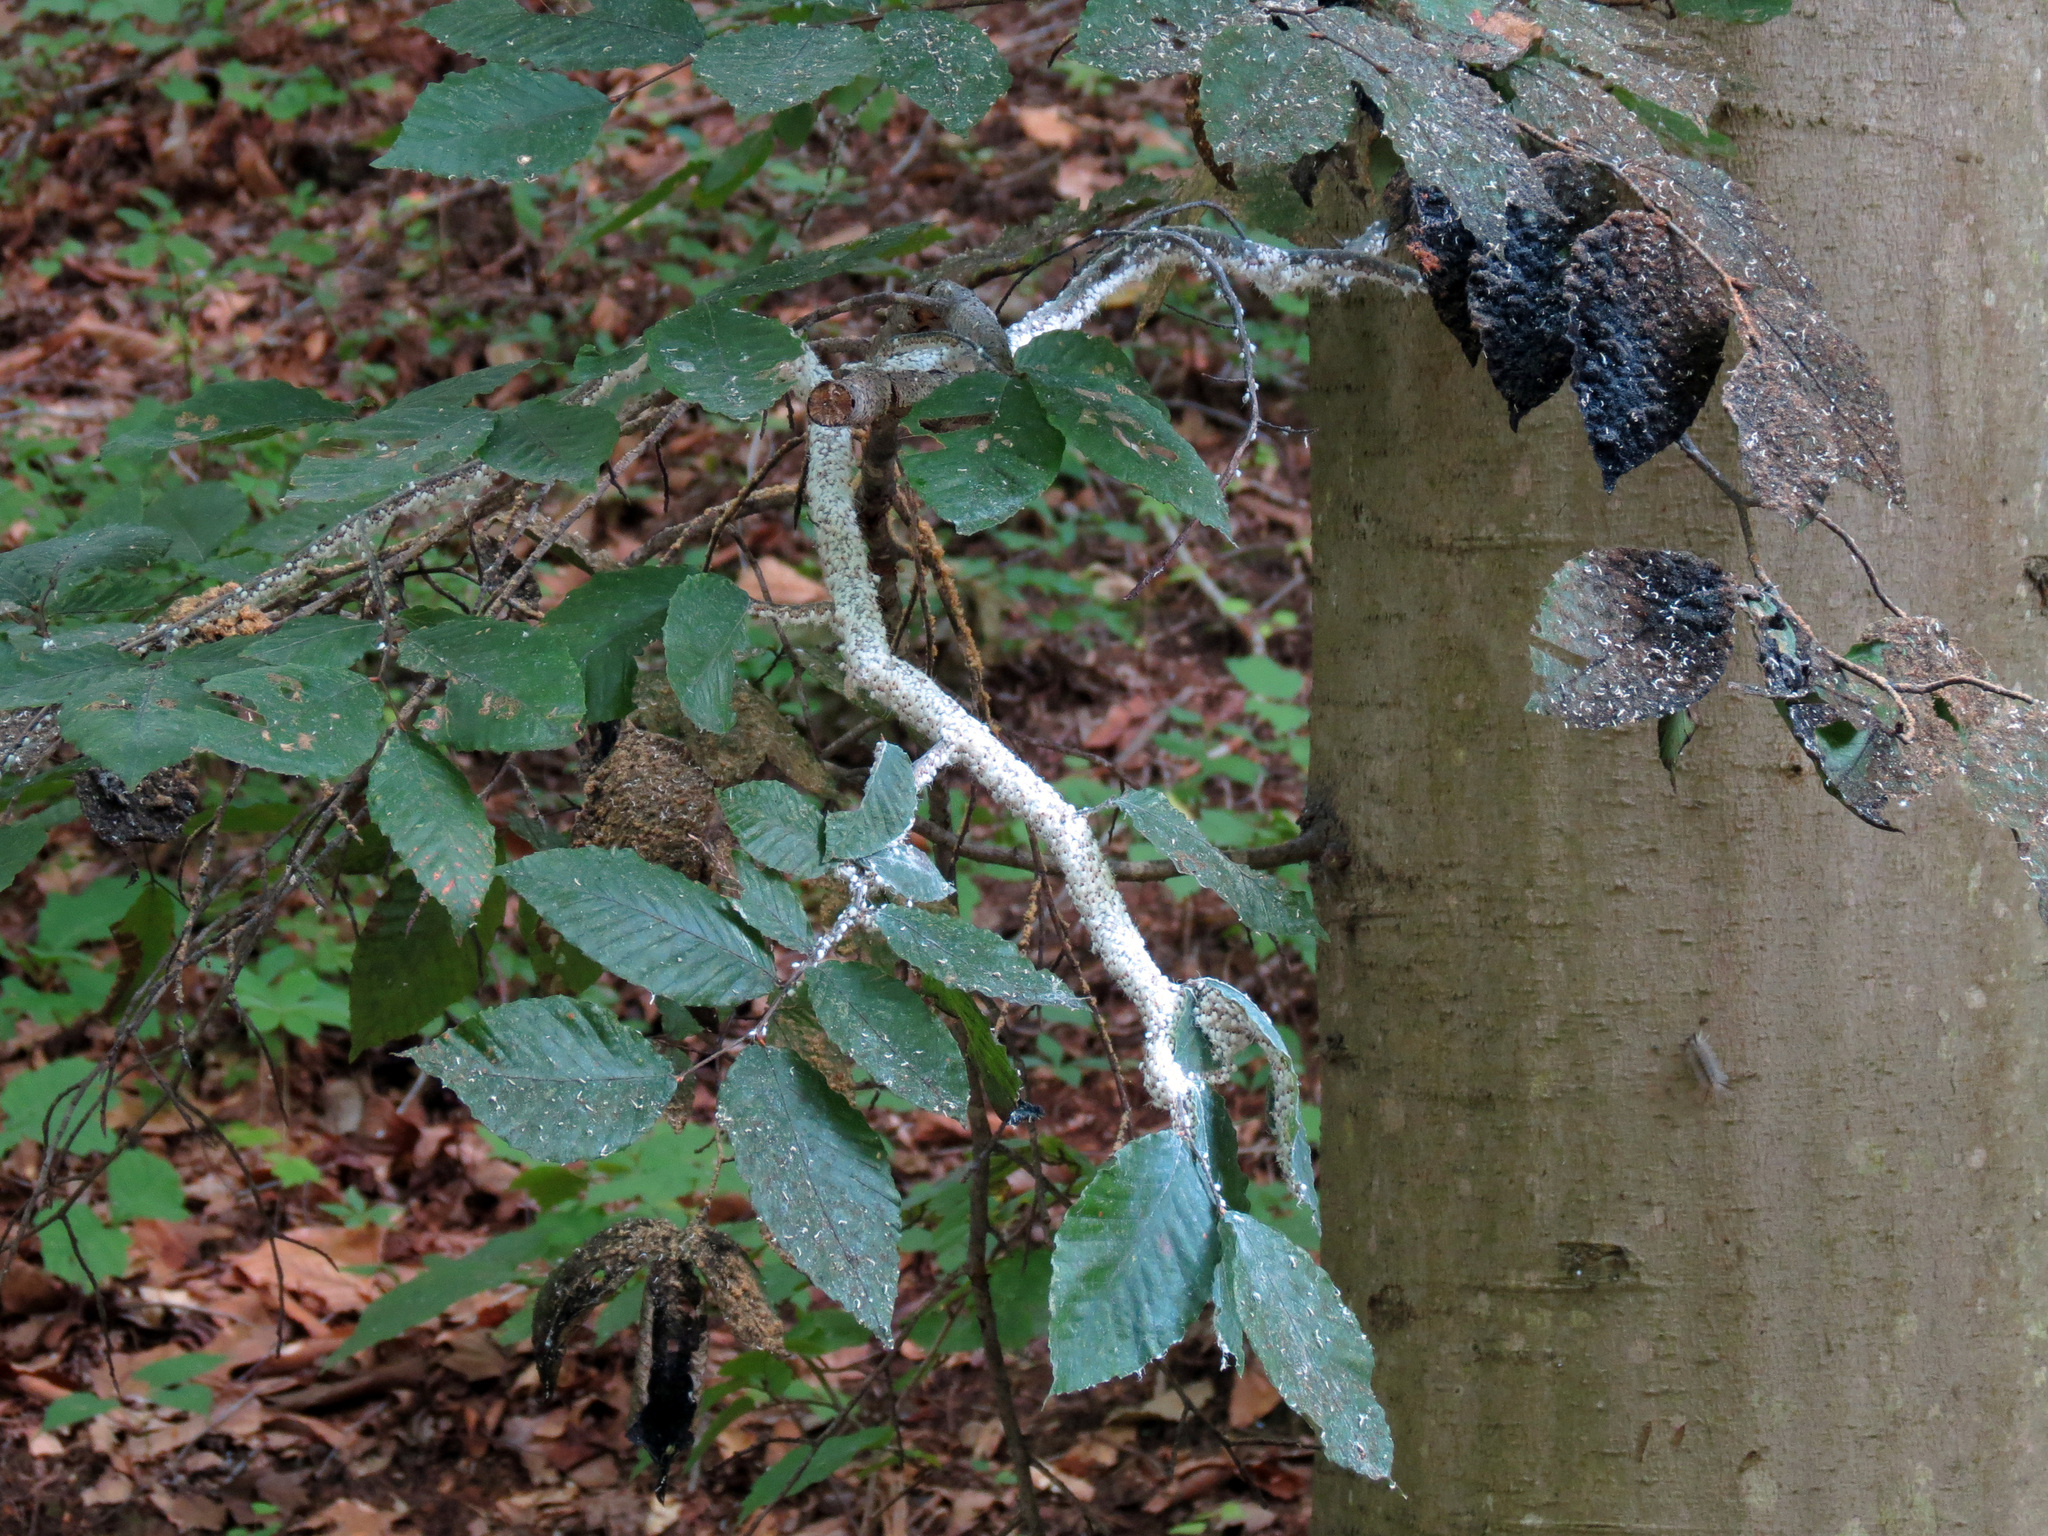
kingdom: Plantae
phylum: Tracheophyta
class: Magnoliopsida
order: Fagales
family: Fagaceae
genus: Fagus
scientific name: Fagus grandifolia
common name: American beech
